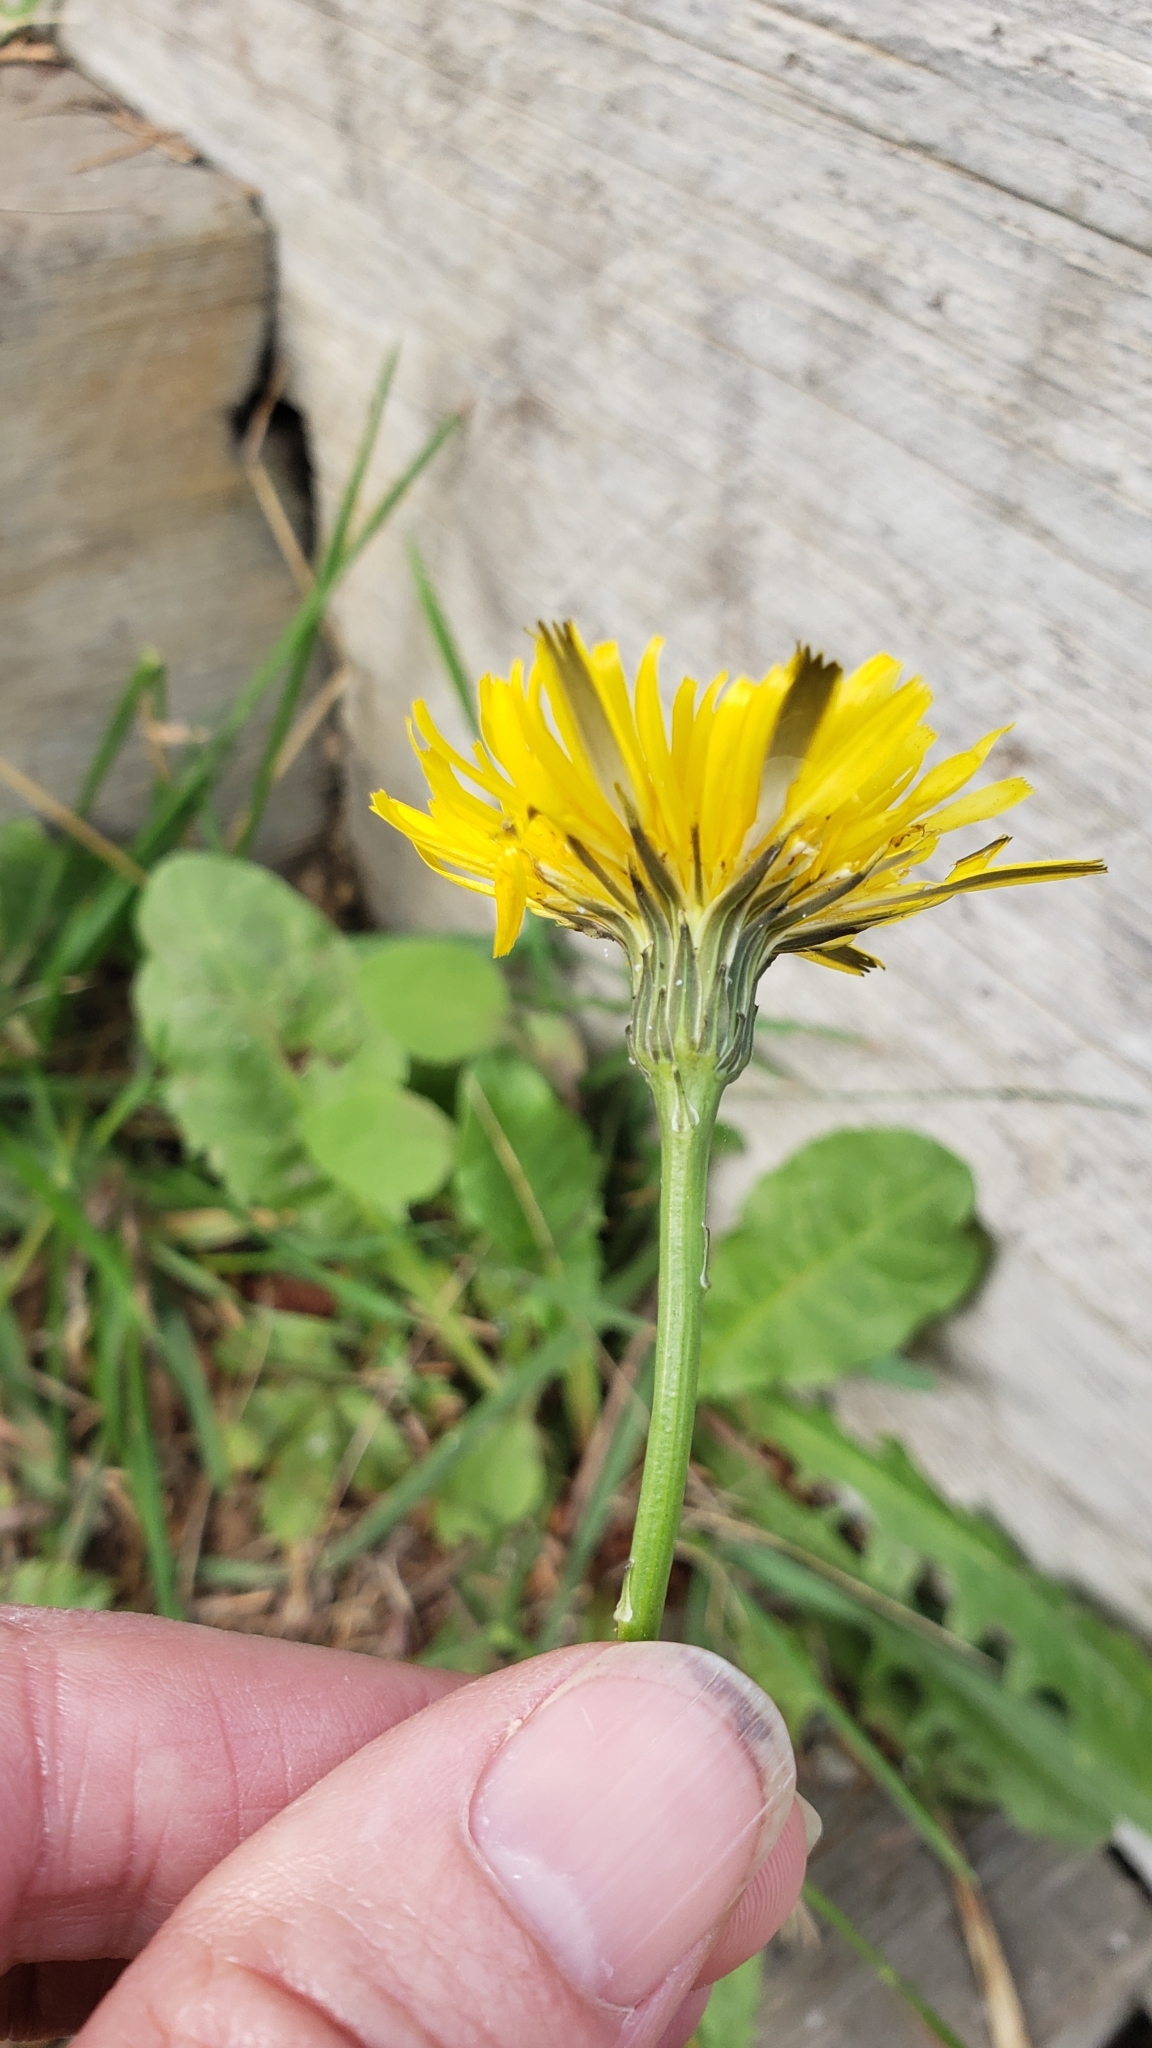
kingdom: Plantae
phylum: Tracheophyta
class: Magnoliopsida
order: Asterales
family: Asteraceae
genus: Hypochaeris
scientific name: Hypochaeris radicata
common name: Flatweed
